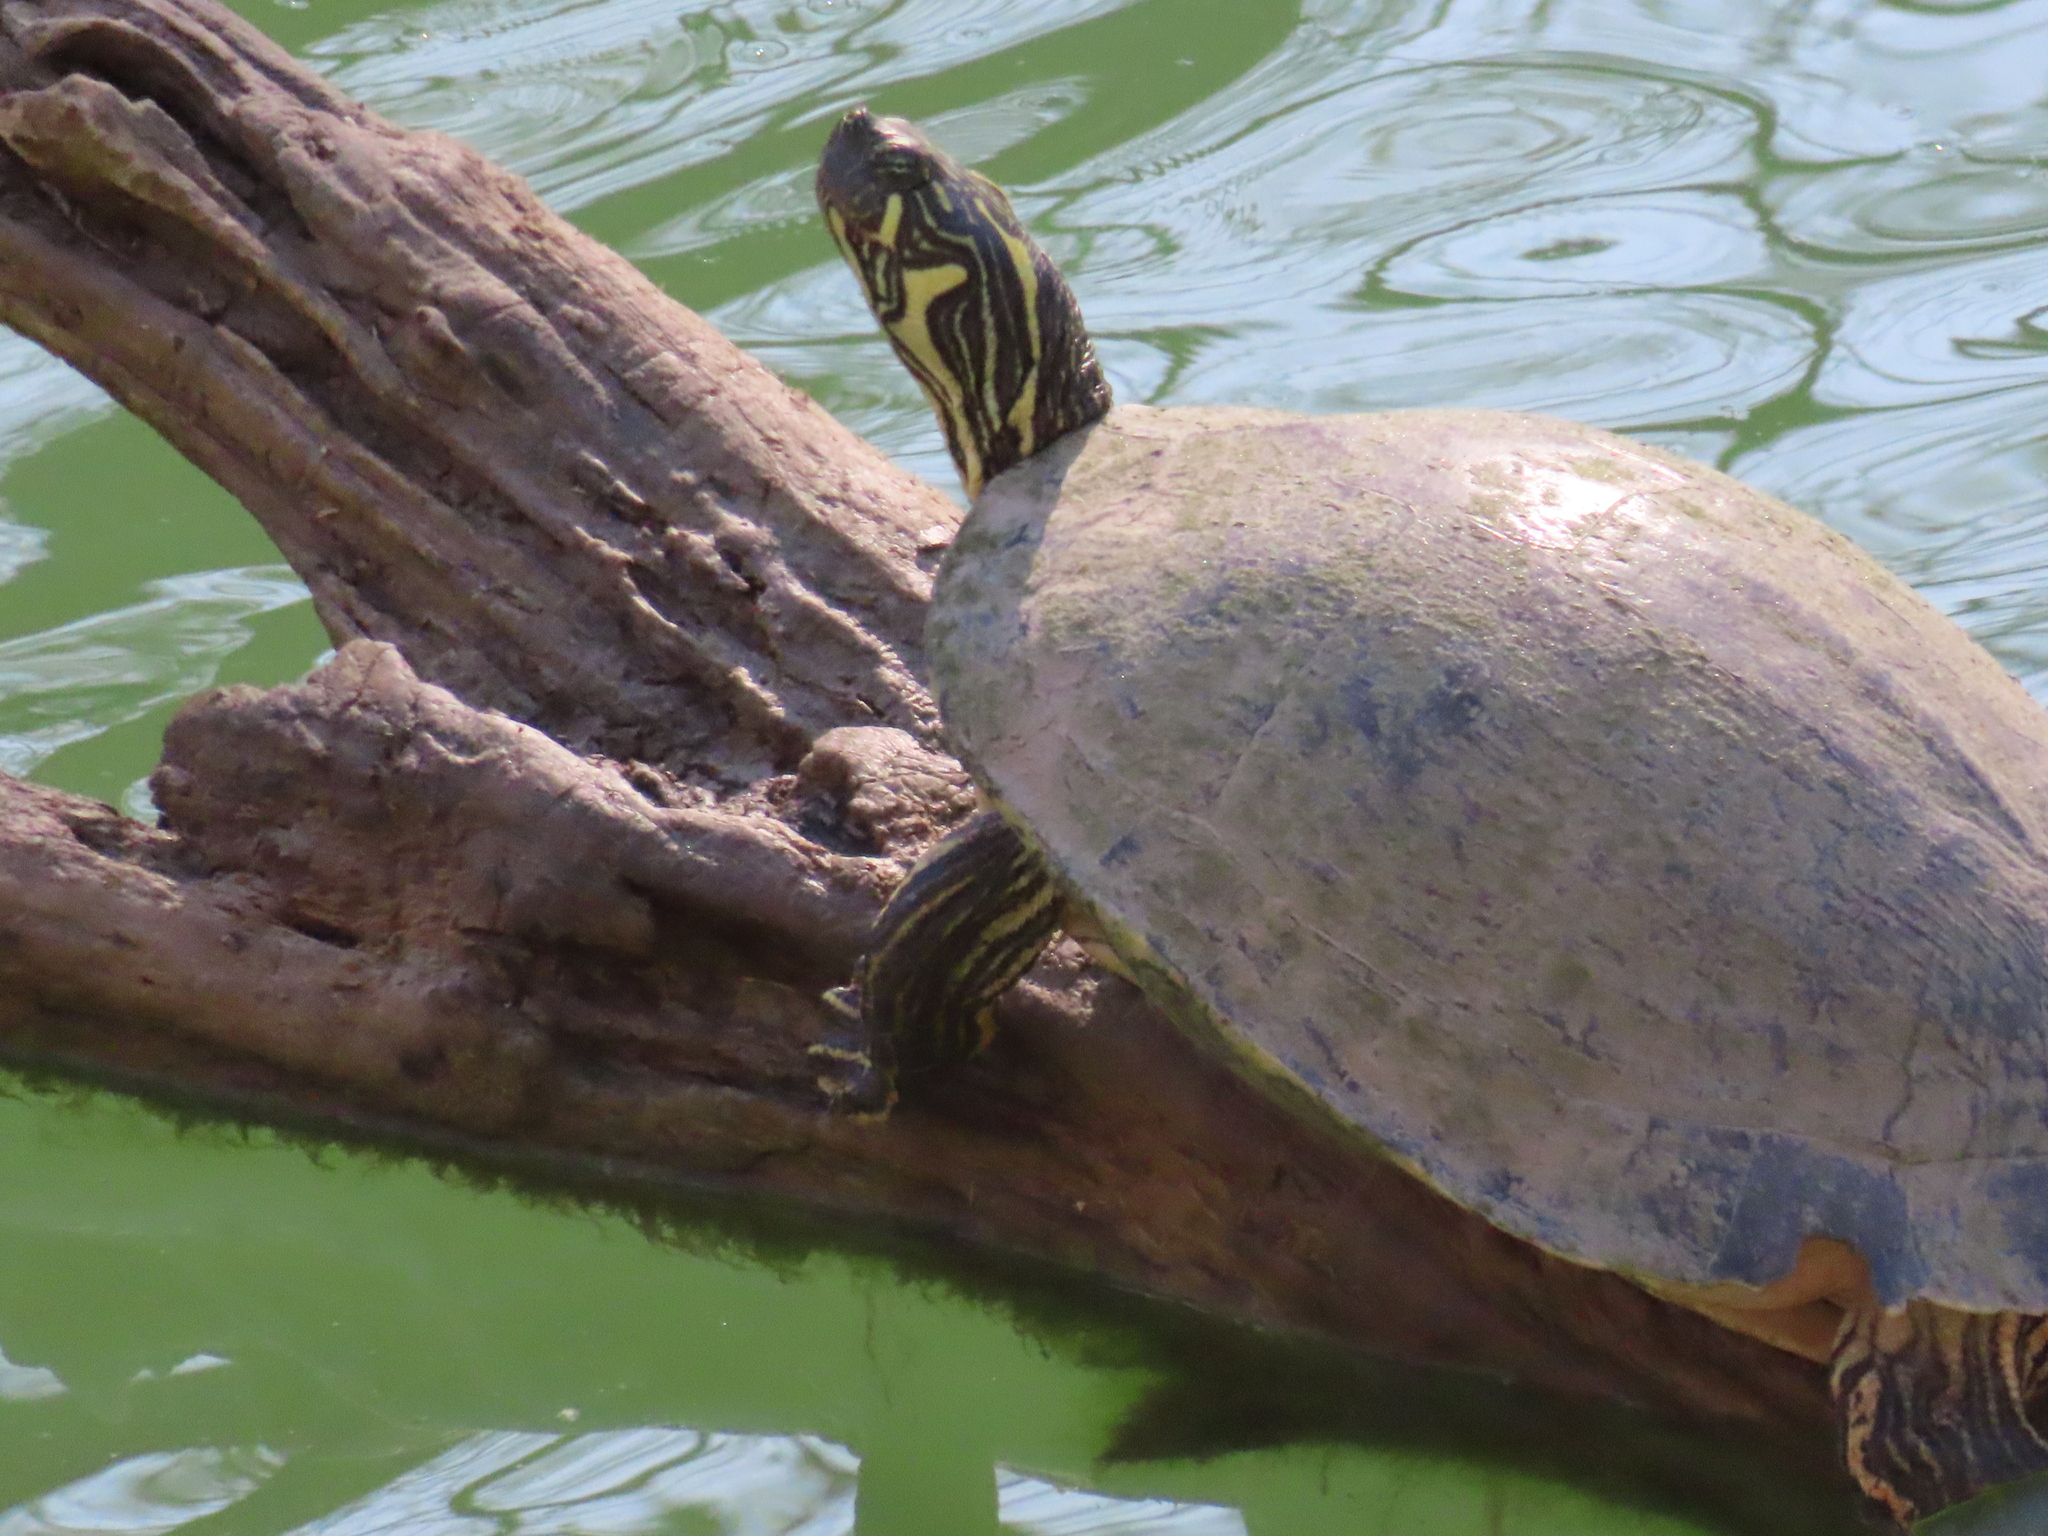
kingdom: Animalia
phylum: Chordata
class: Testudines
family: Emydidae
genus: Pseudemys
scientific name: Pseudemys texana
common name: Texas river cooter
